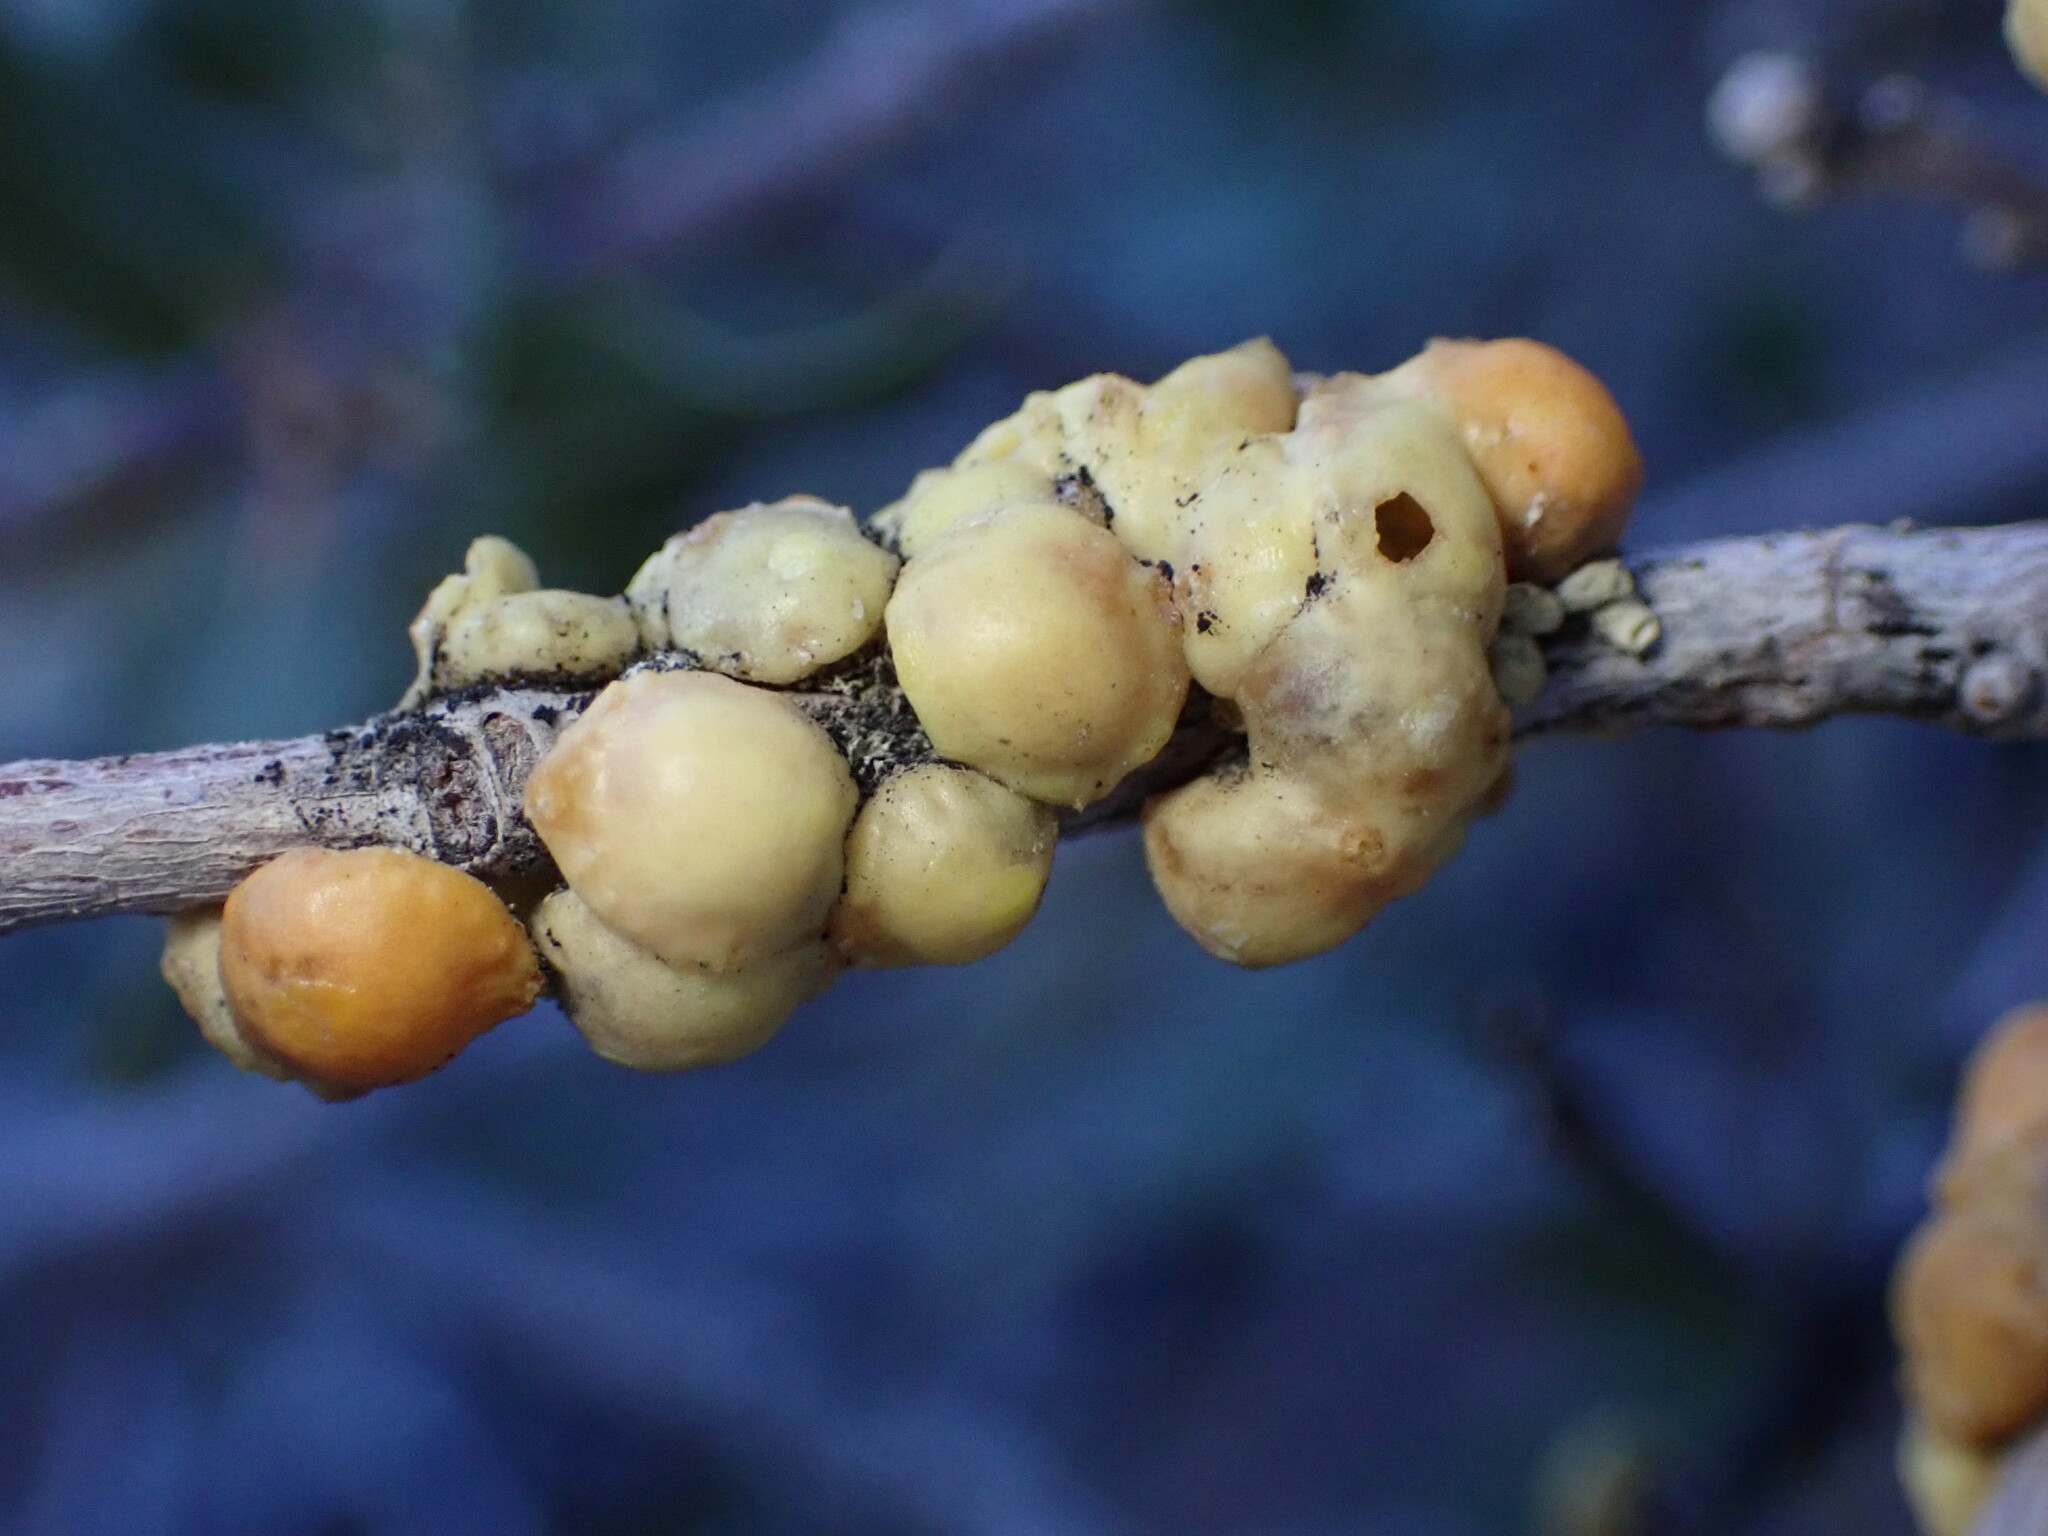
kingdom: Animalia
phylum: Arthropoda
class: Insecta
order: Hemiptera
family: Cerococcidae
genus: Cerococcus
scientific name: Cerococcus quercus
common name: Oak cerococcus
